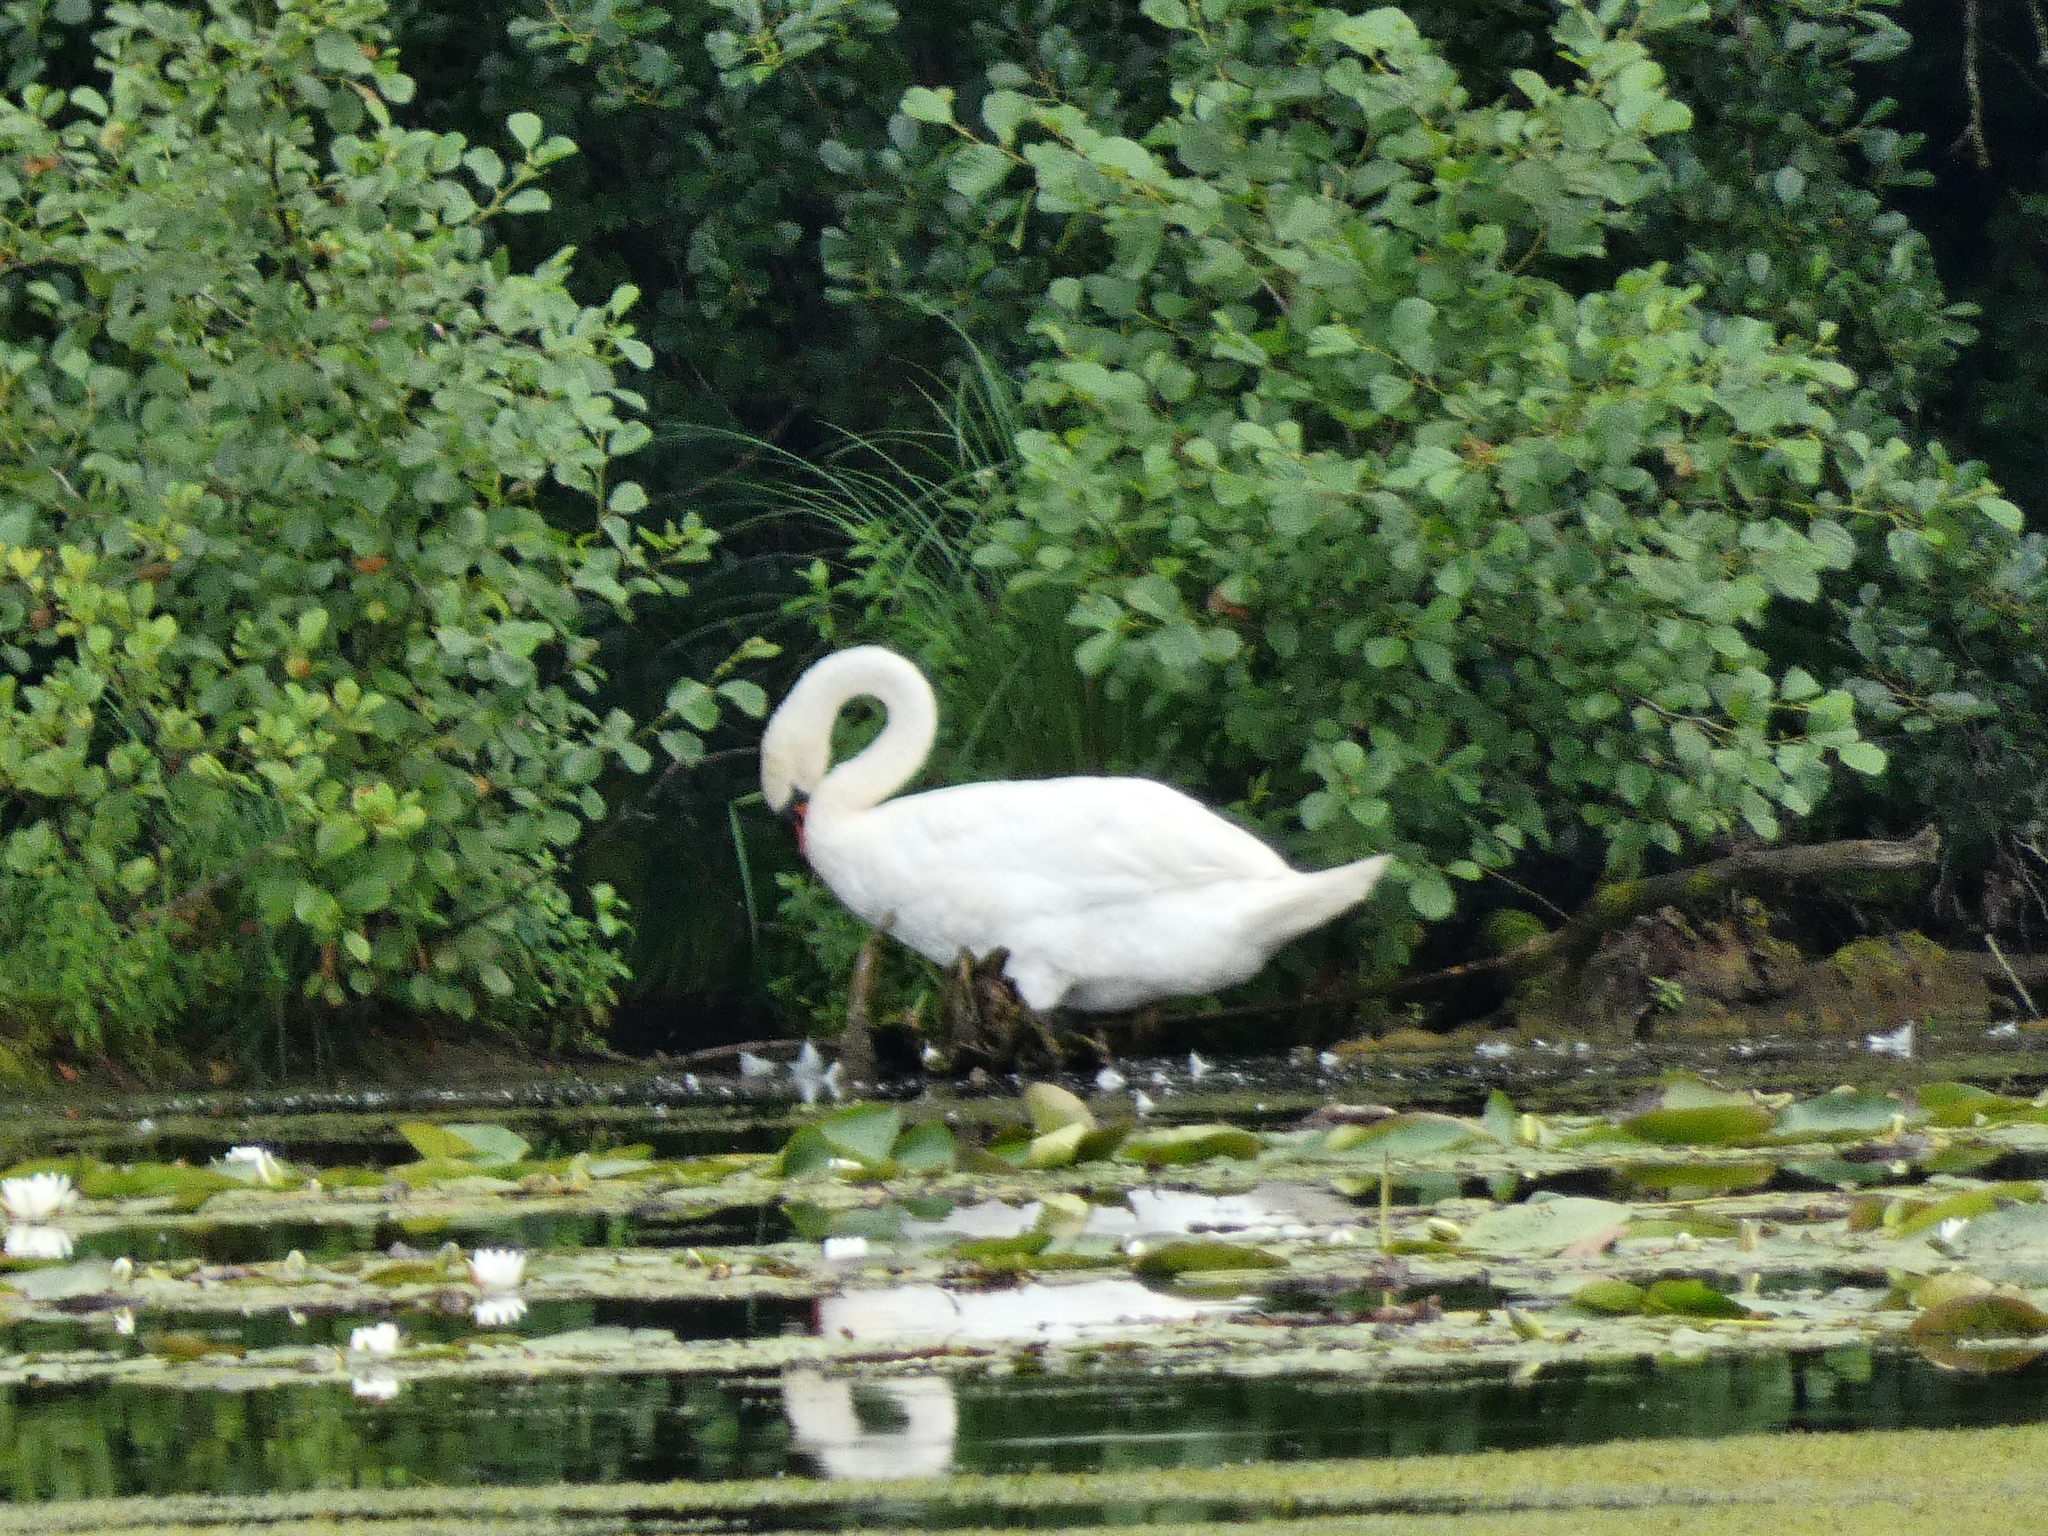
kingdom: Animalia
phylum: Chordata
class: Aves
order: Anseriformes
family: Anatidae
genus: Cygnus
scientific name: Cygnus olor
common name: Mute swan
